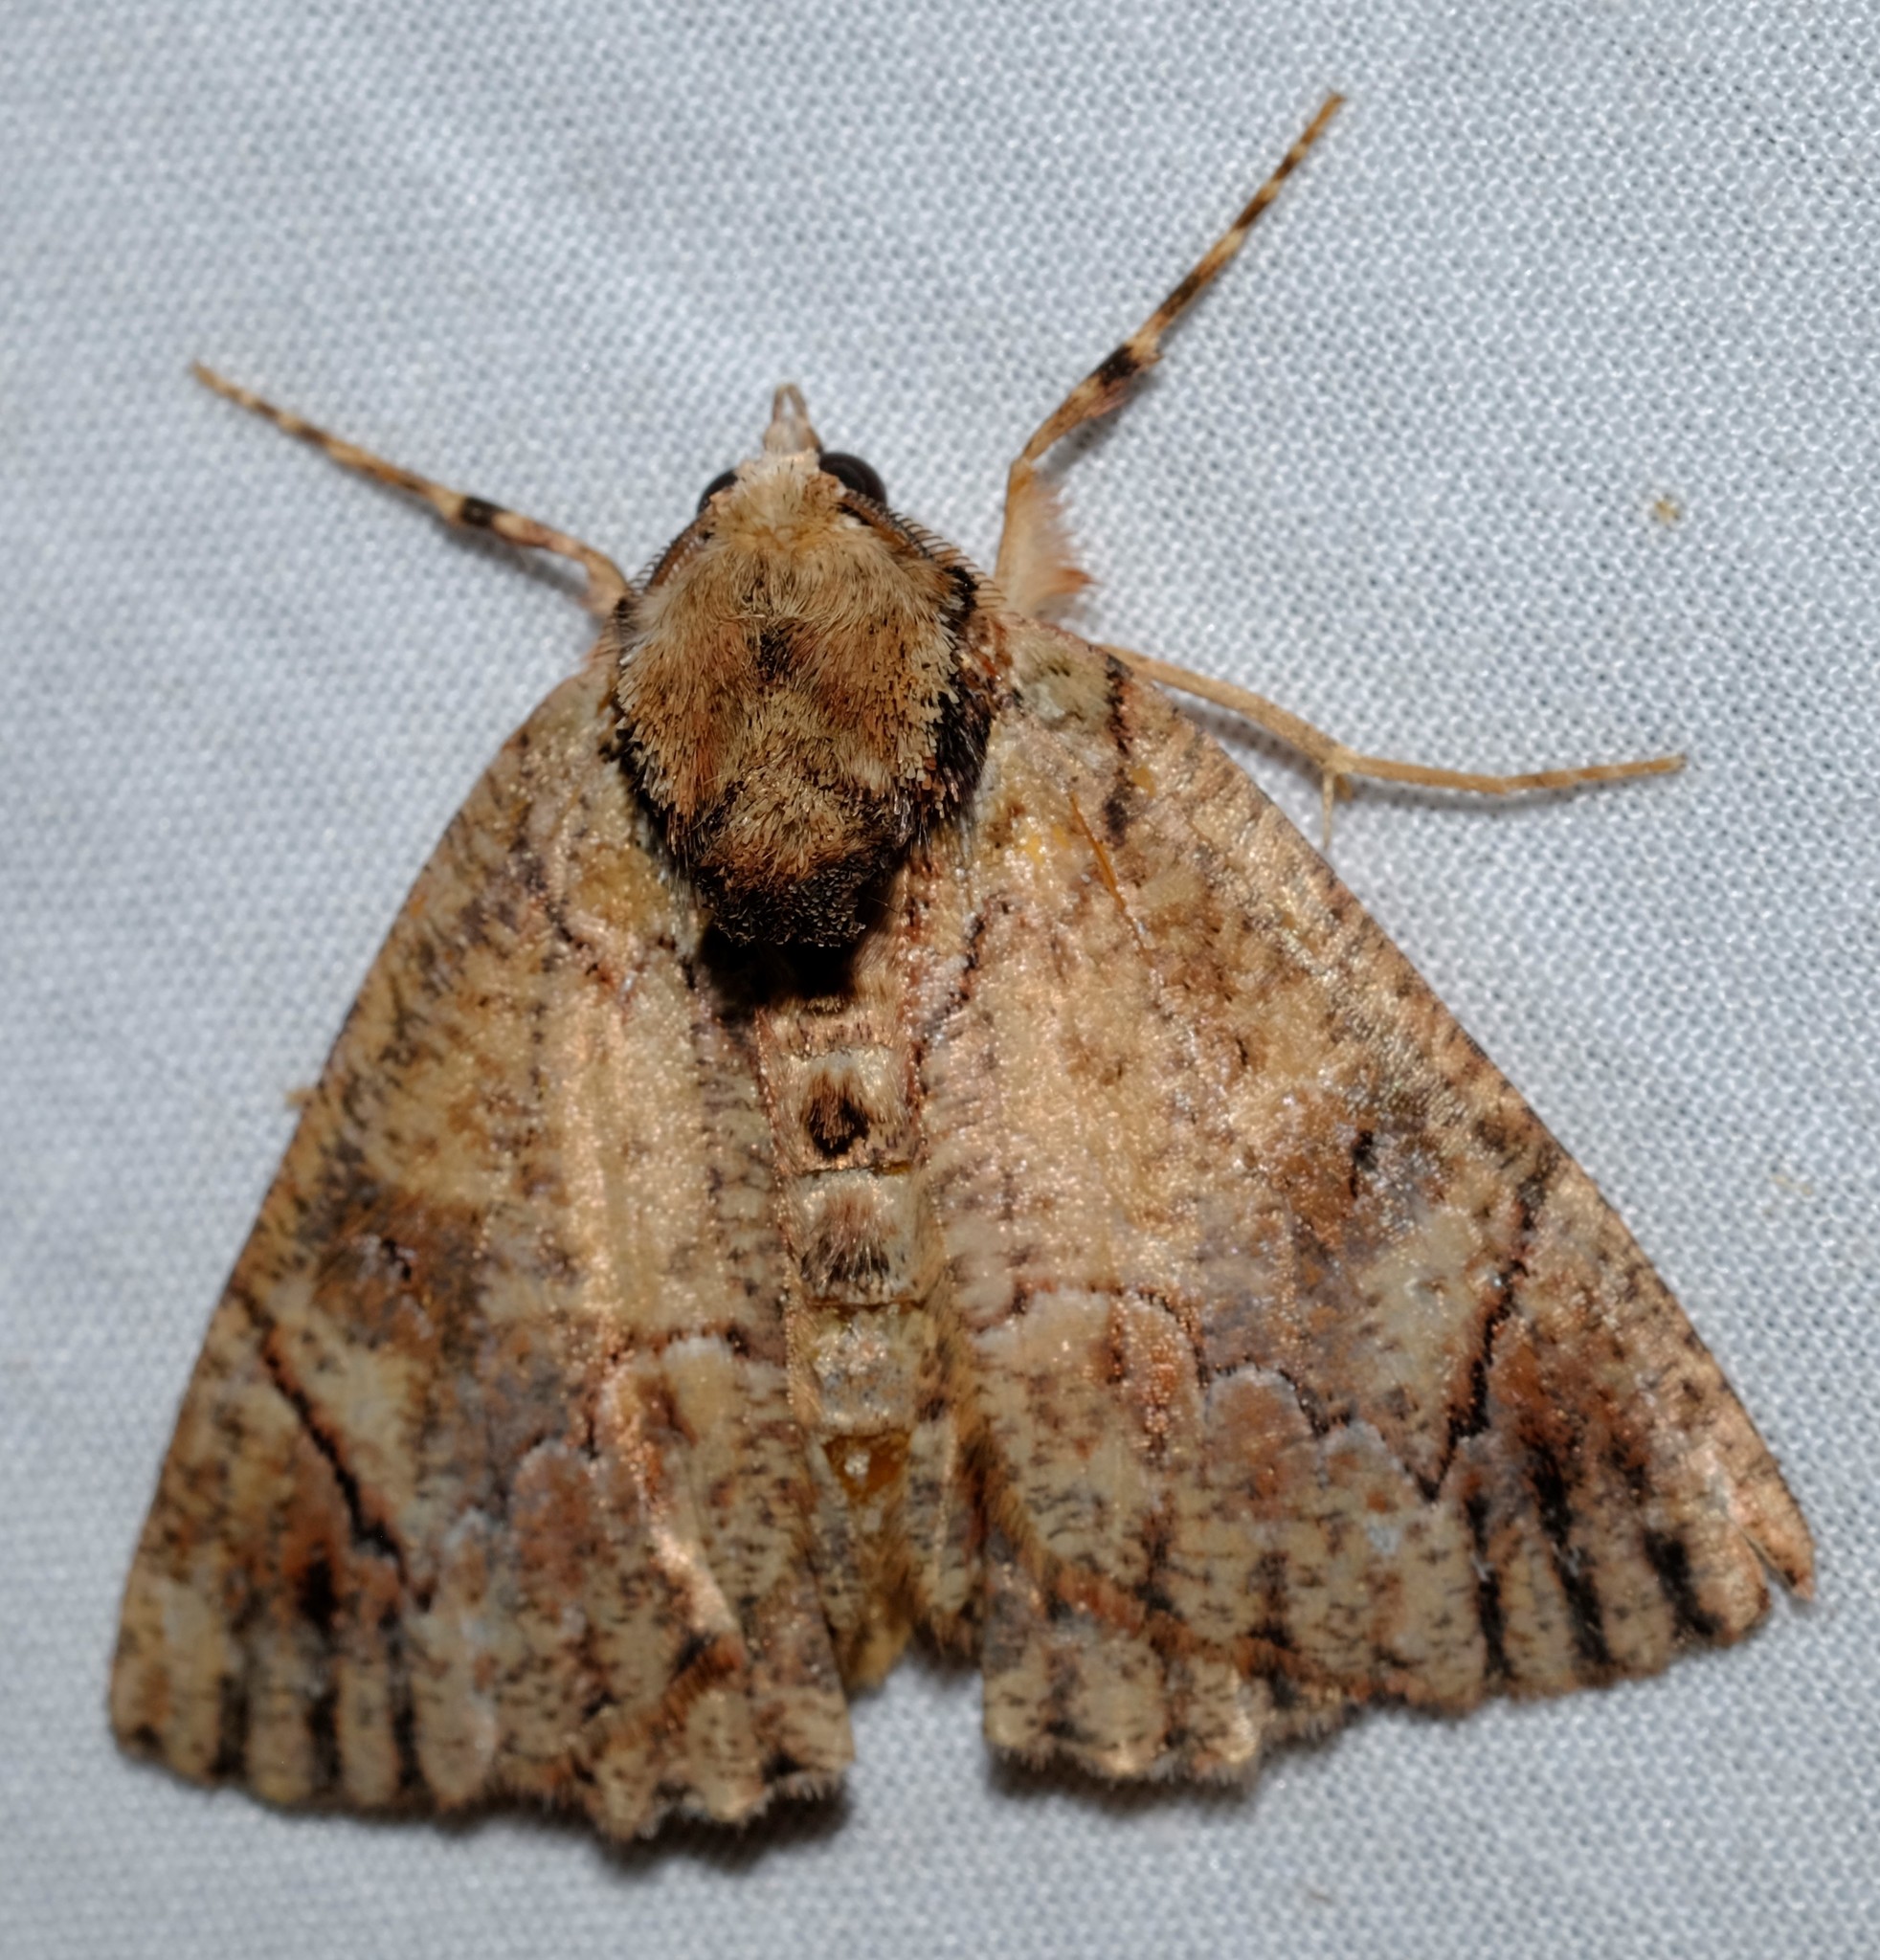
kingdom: Animalia
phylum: Arthropoda
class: Insecta
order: Lepidoptera
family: Geometridae
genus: Heliomystis
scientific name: Heliomystis electrica
